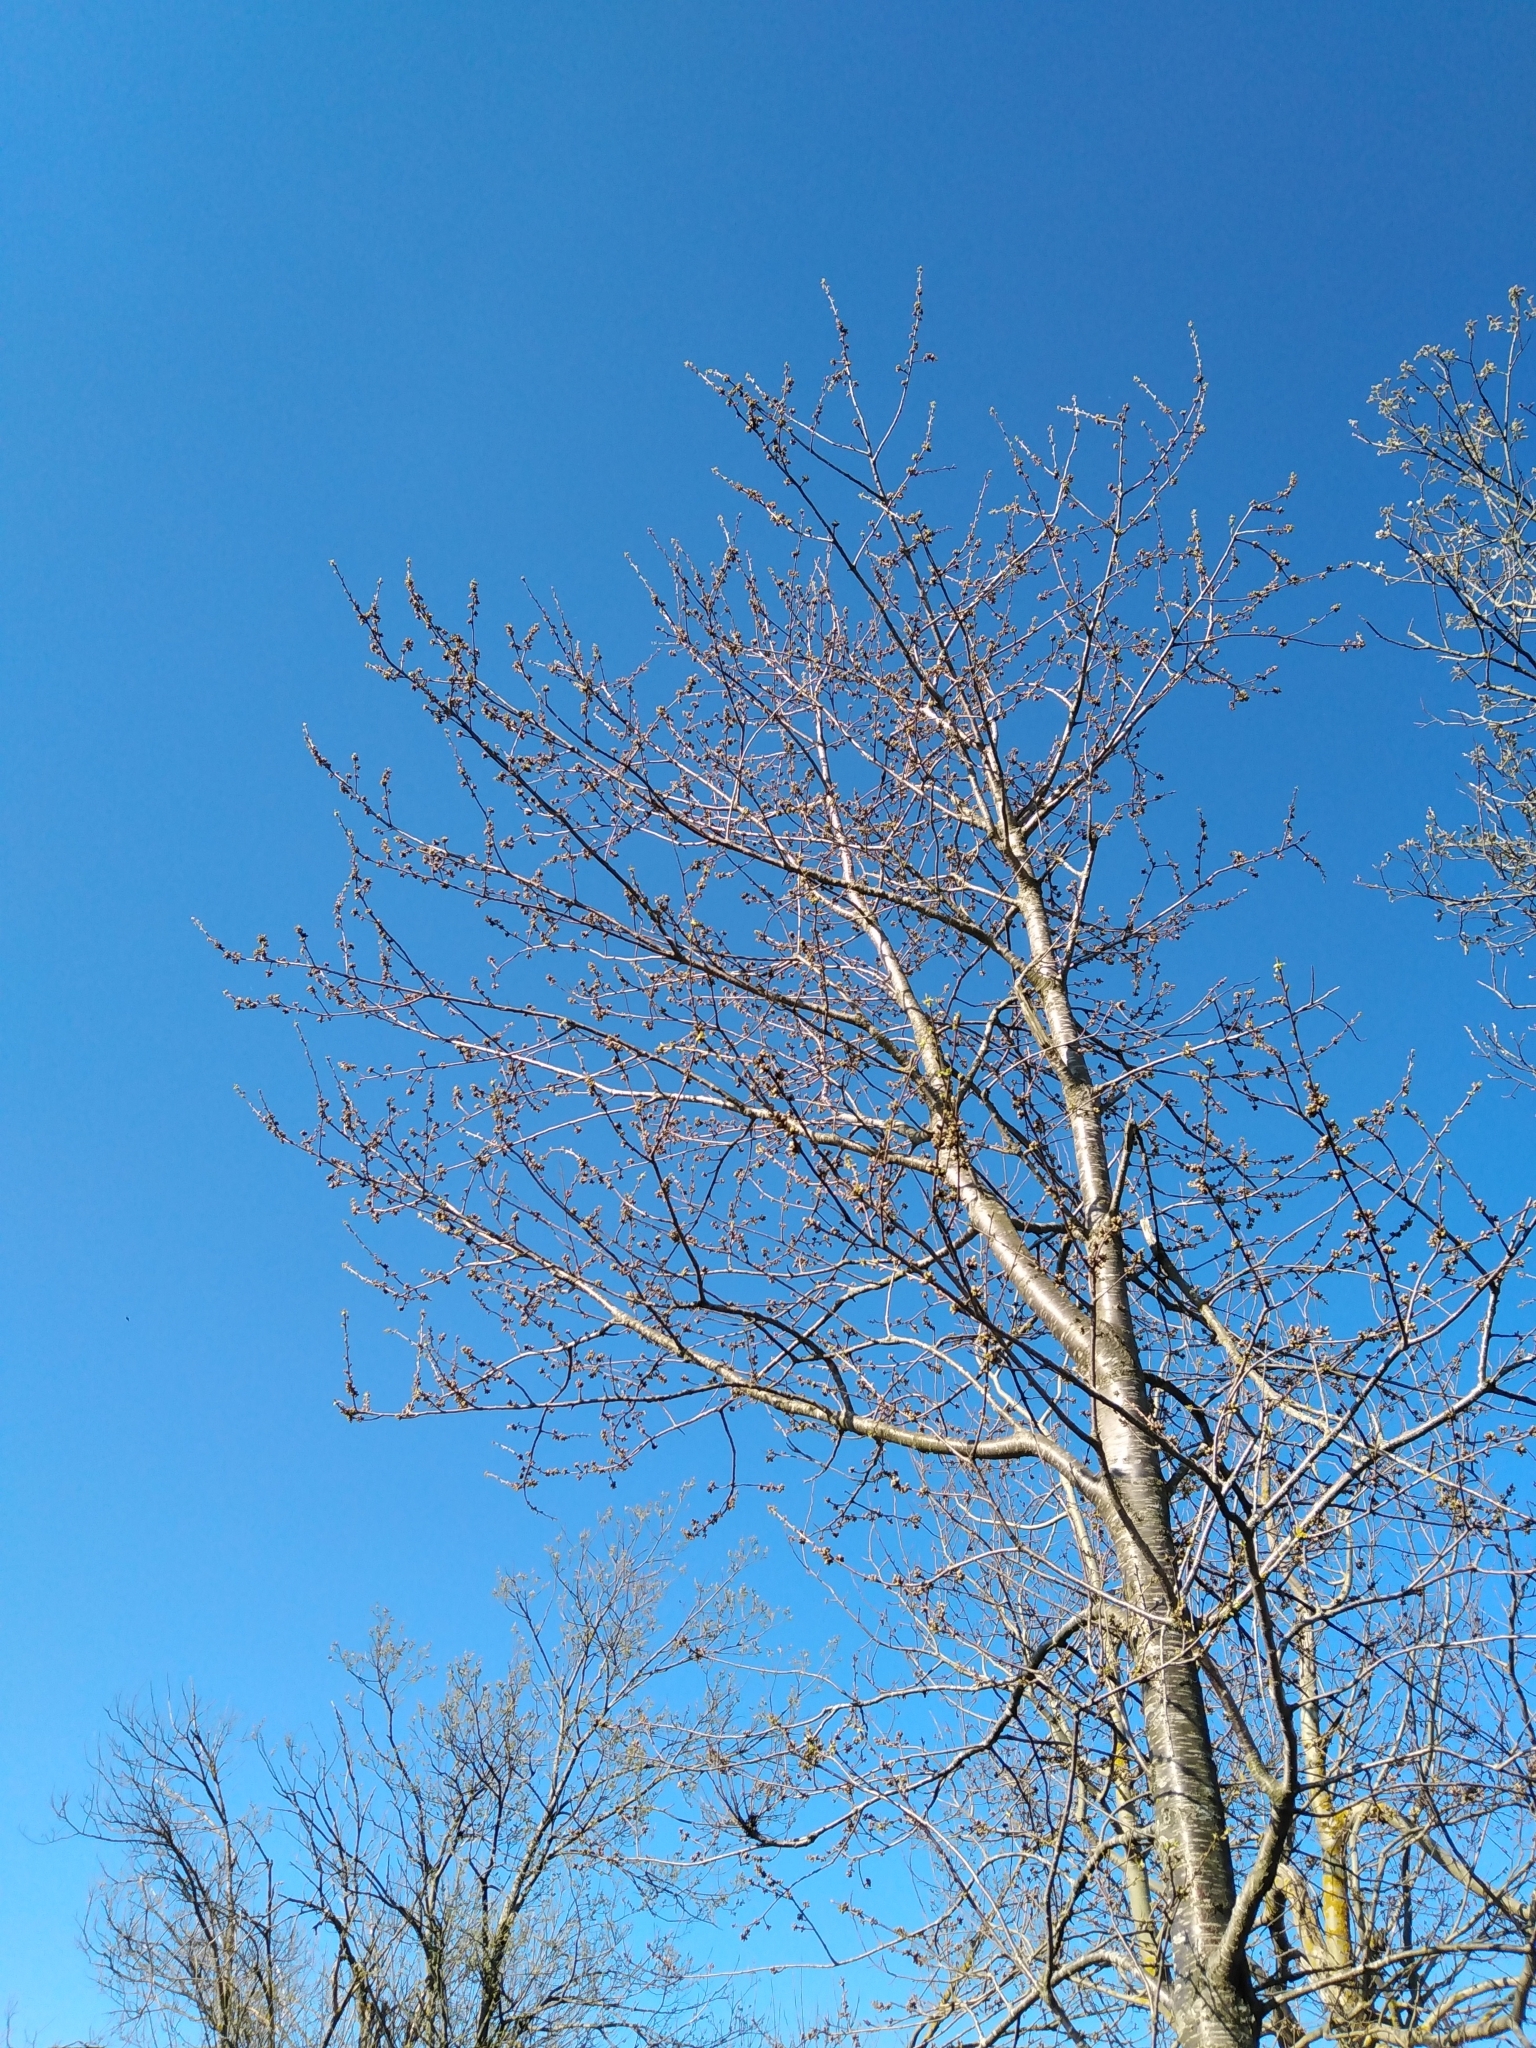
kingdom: Plantae
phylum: Tracheophyta
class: Magnoliopsida
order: Rosales
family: Rosaceae
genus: Prunus
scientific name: Prunus avium
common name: Sweet cherry
